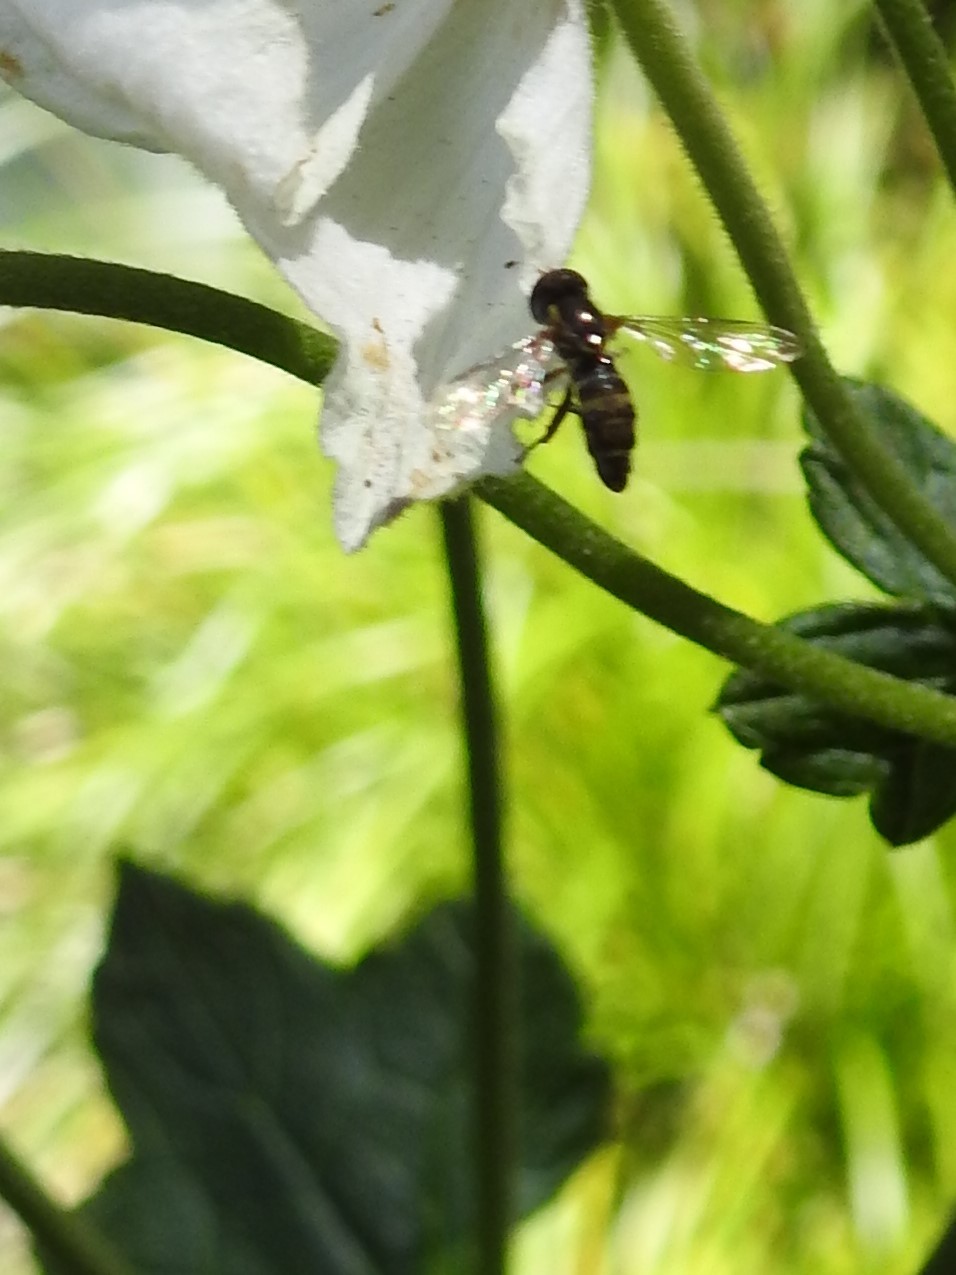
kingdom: Animalia
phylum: Arthropoda
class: Insecta
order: Diptera
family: Syrphidae
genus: Toxomerus
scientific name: Toxomerus occidentalis
